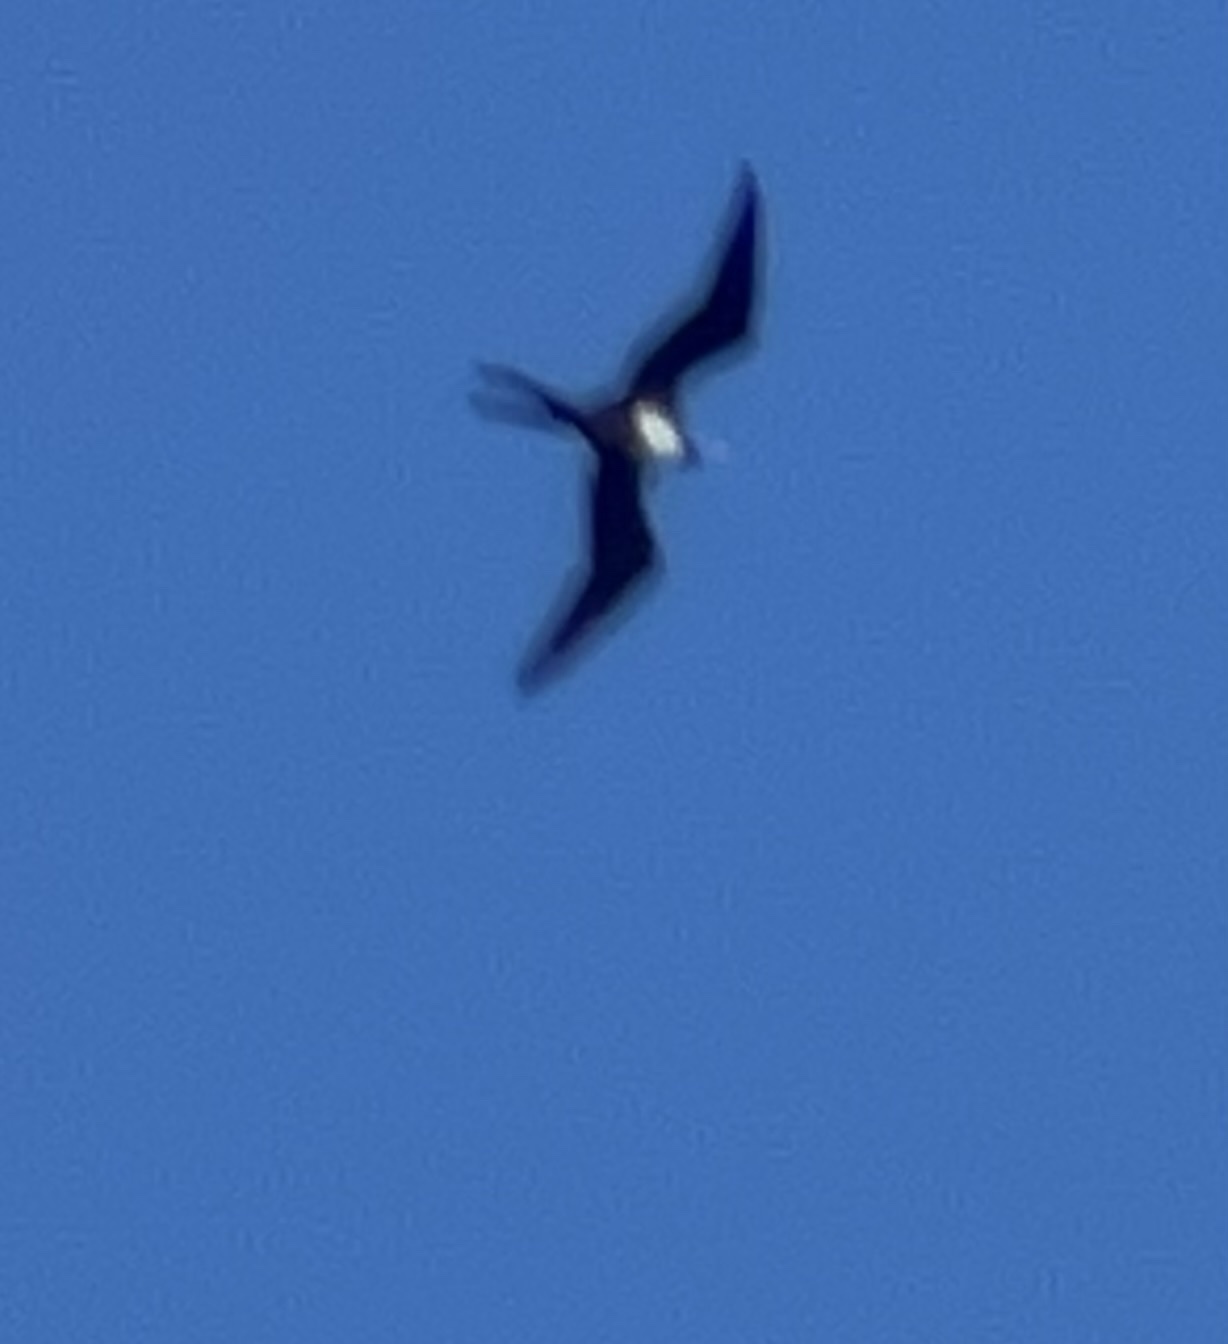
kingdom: Animalia
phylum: Chordata
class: Aves
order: Suliformes
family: Fregatidae
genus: Fregata
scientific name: Fregata magnificens
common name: Magnificent frigatebird
